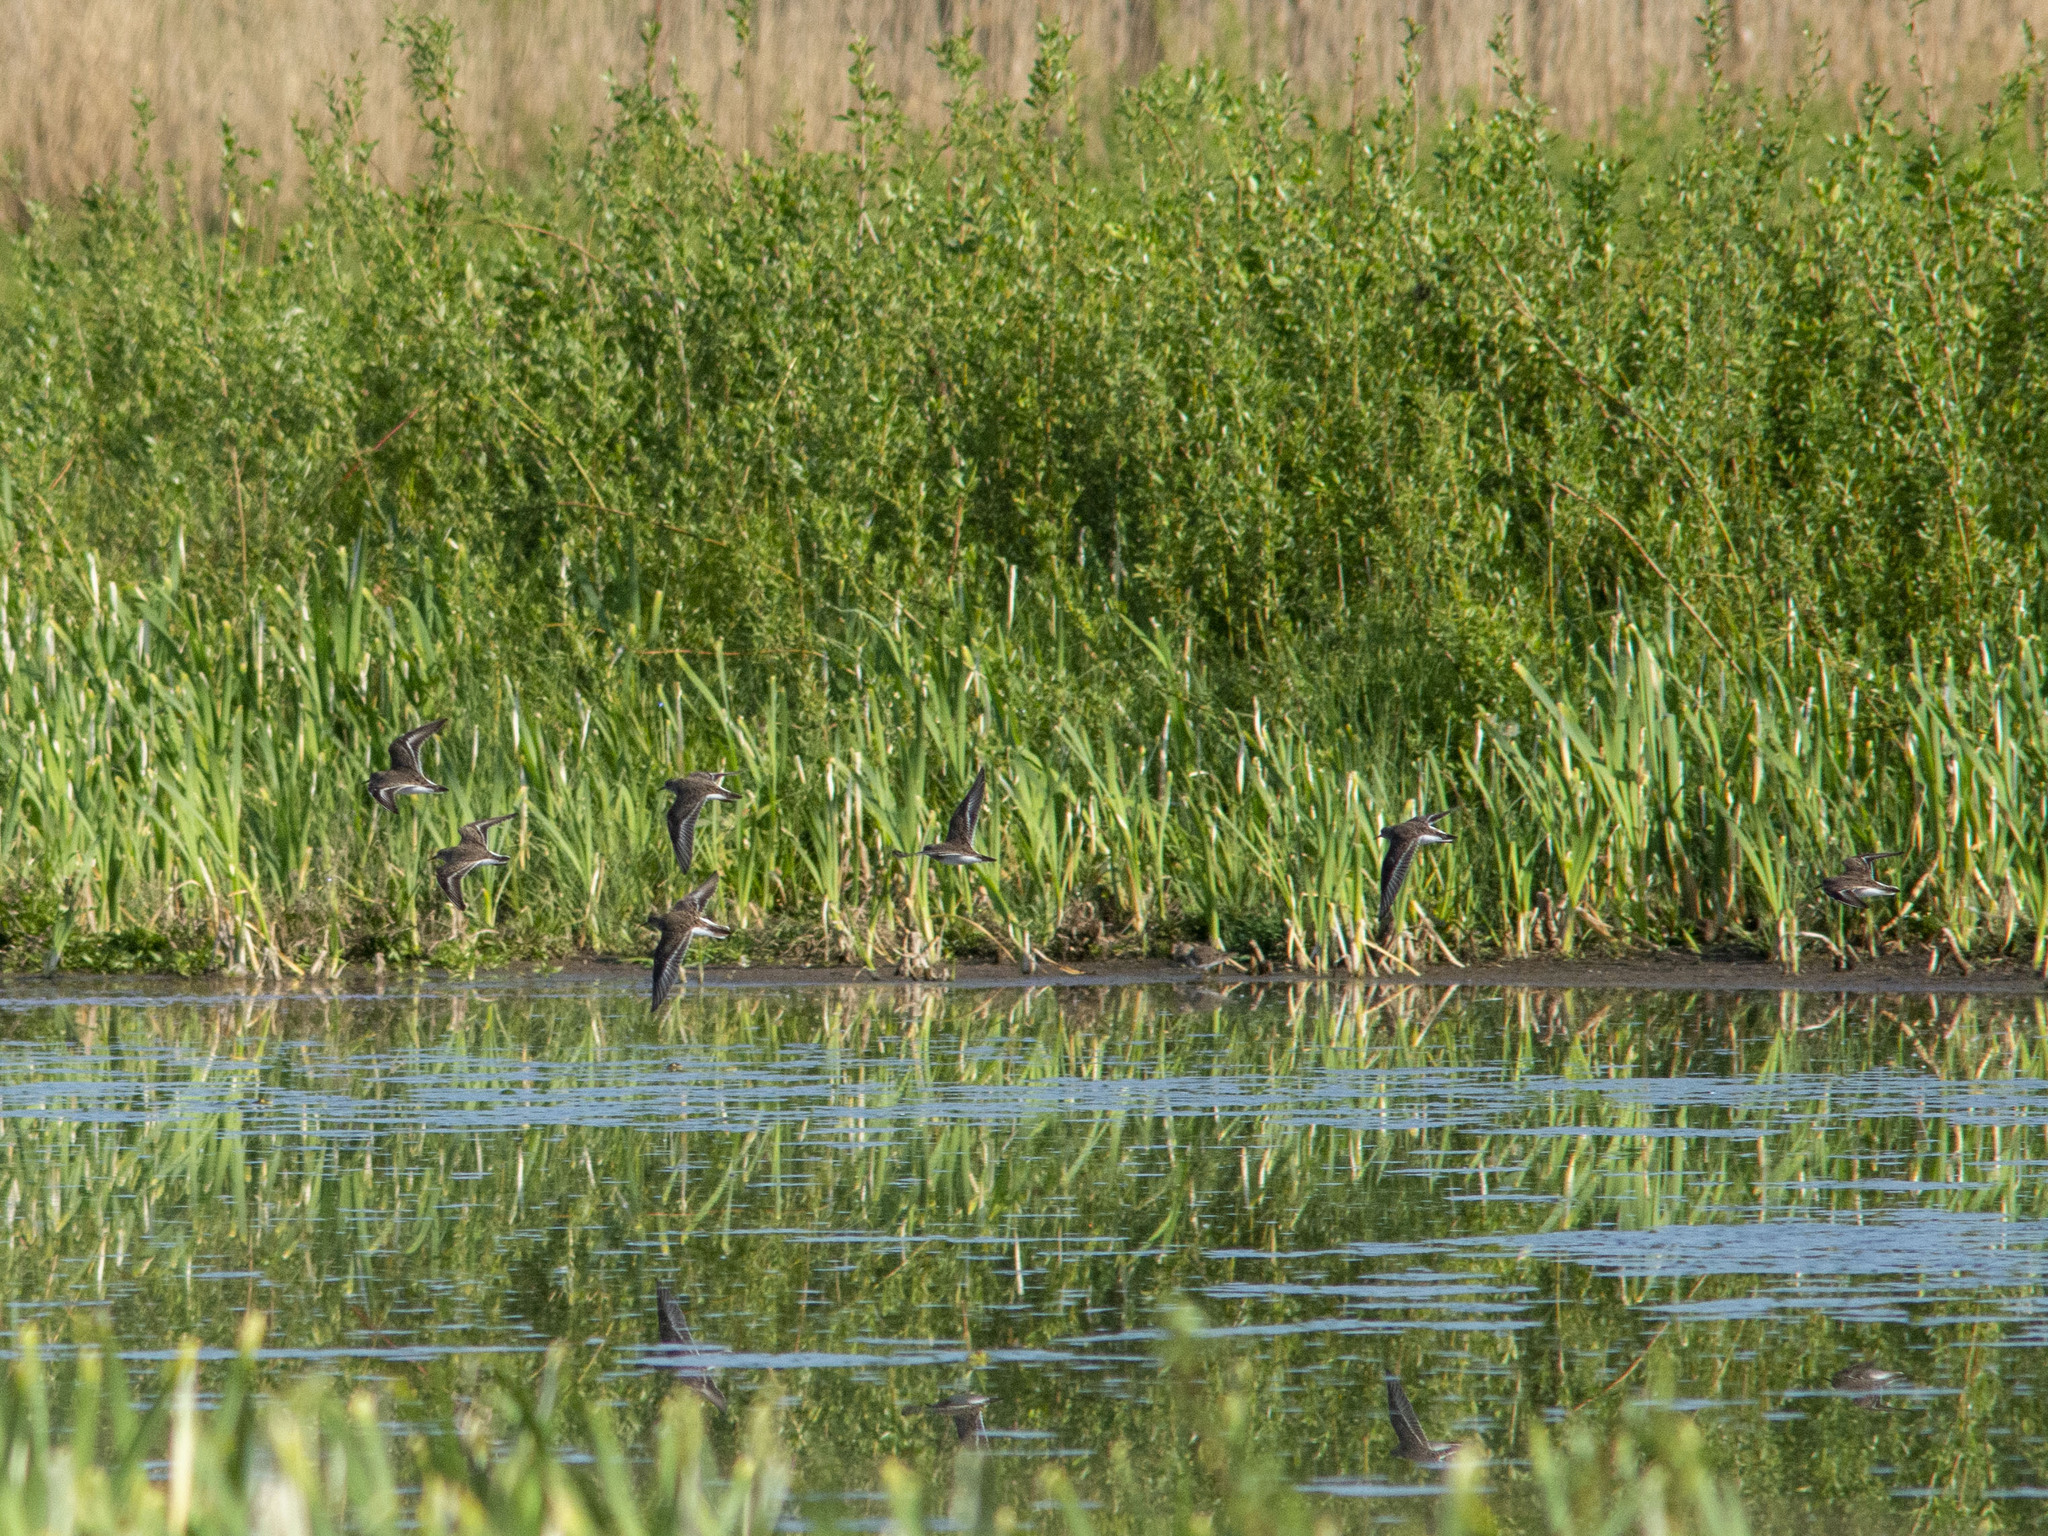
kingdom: Animalia
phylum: Chordata
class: Aves
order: Charadriiformes
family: Scolopacidae
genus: Calidris
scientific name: Calidris temminckii
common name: Temminck's stint
